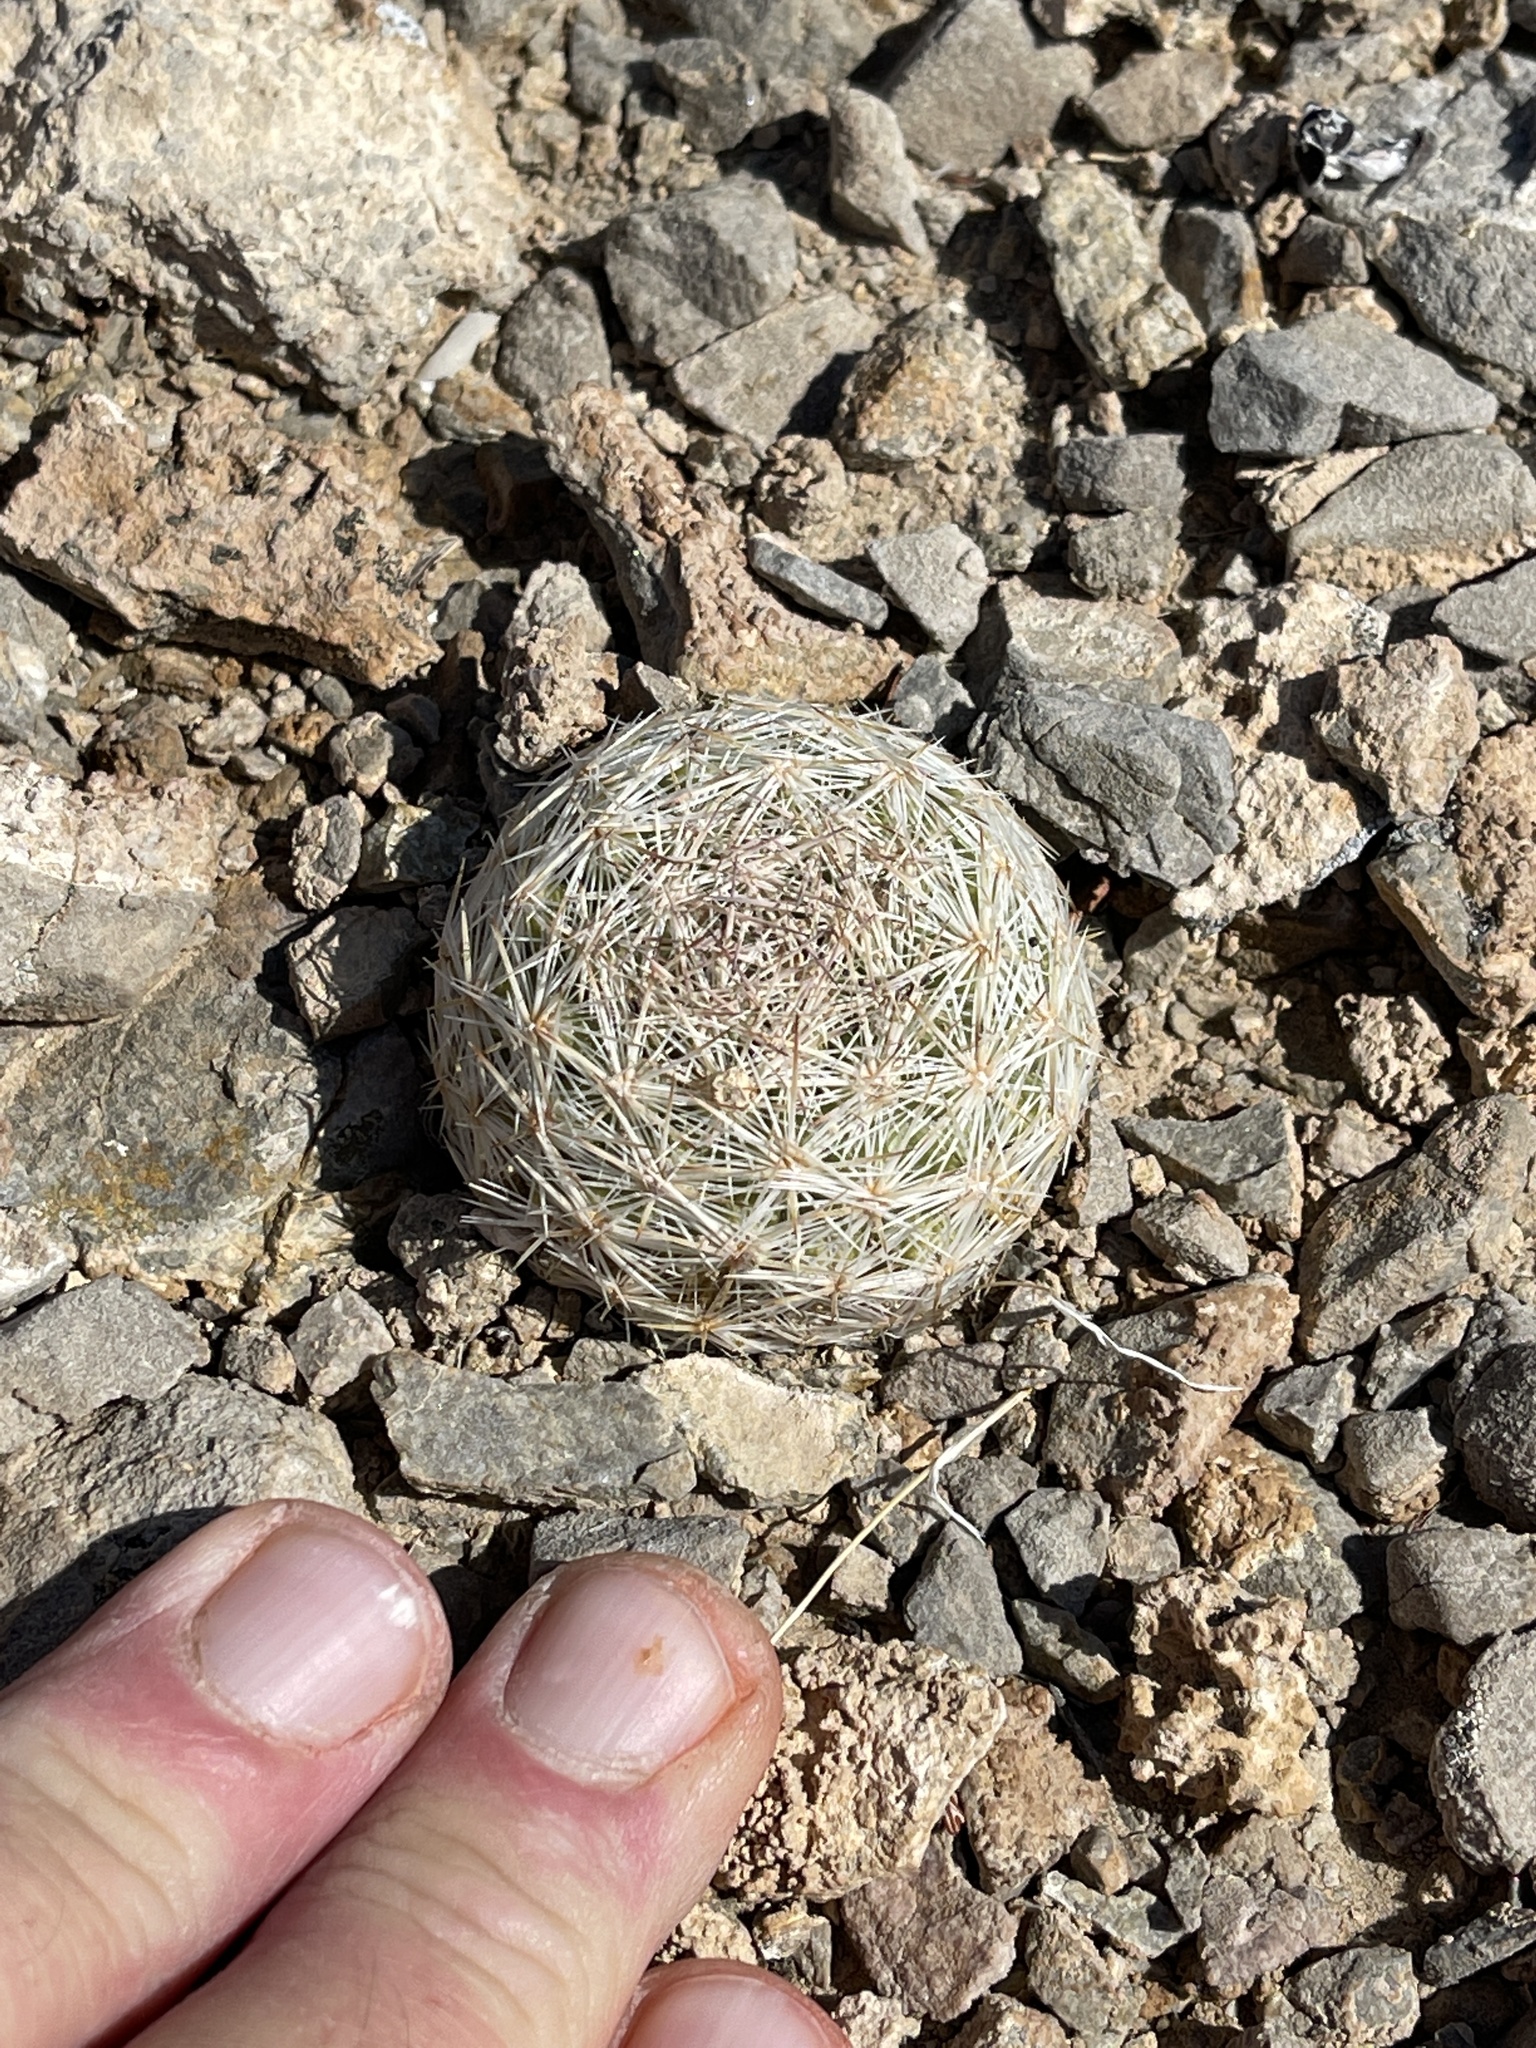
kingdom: Plantae
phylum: Tracheophyta
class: Magnoliopsida
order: Caryophyllales
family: Cactaceae
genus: Pelecyphora
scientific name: Pelecyphora dasyacantha
